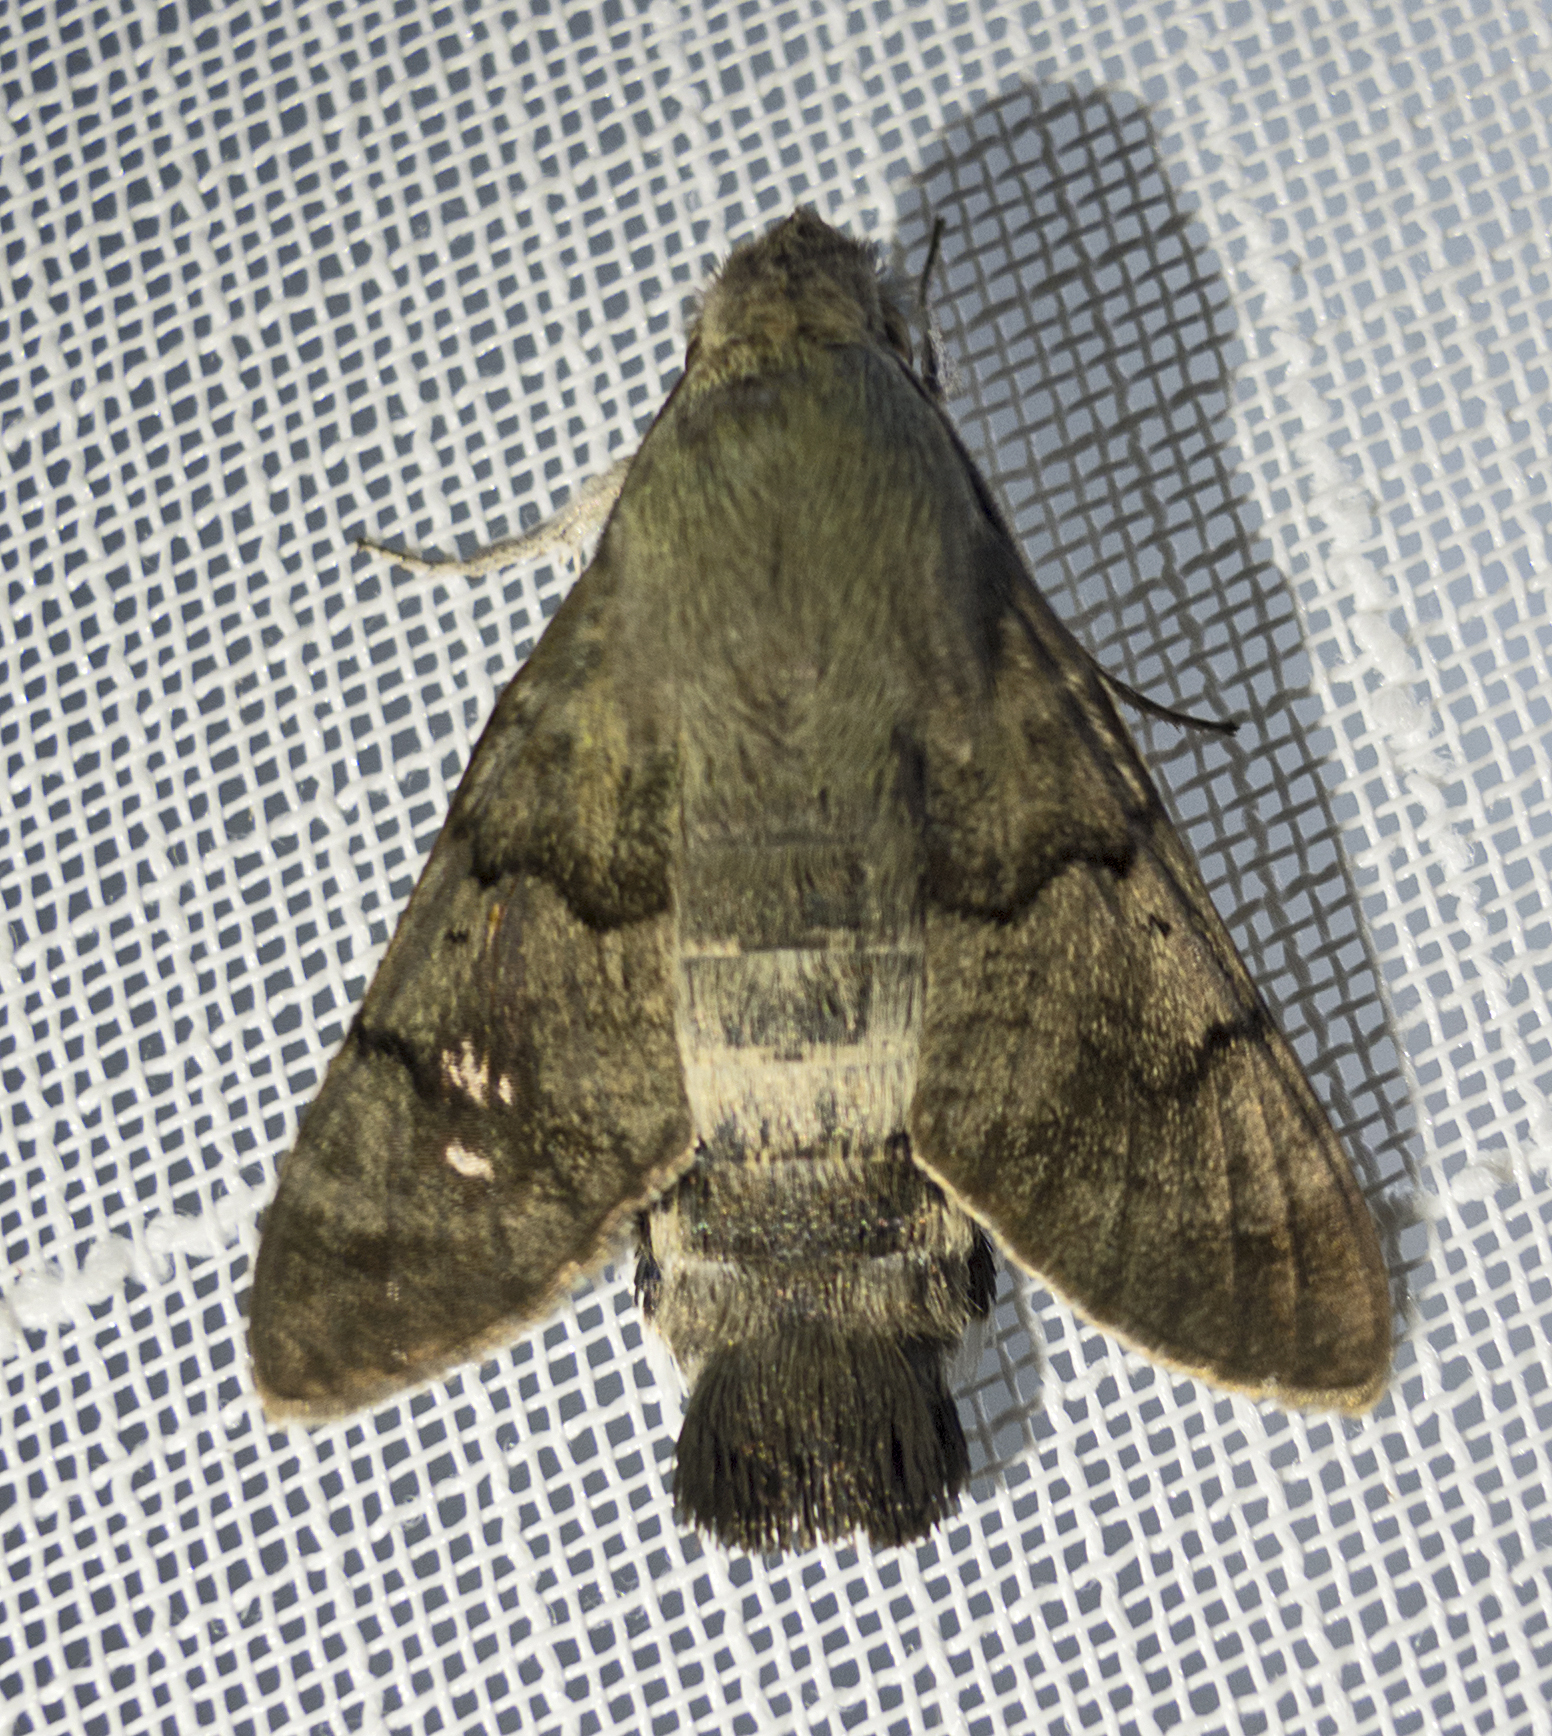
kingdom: Animalia
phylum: Arthropoda
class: Insecta
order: Lepidoptera
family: Sphingidae
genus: Macroglossum
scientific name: Macroglossum stellatarum
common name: Humming-bird hawk-moth
